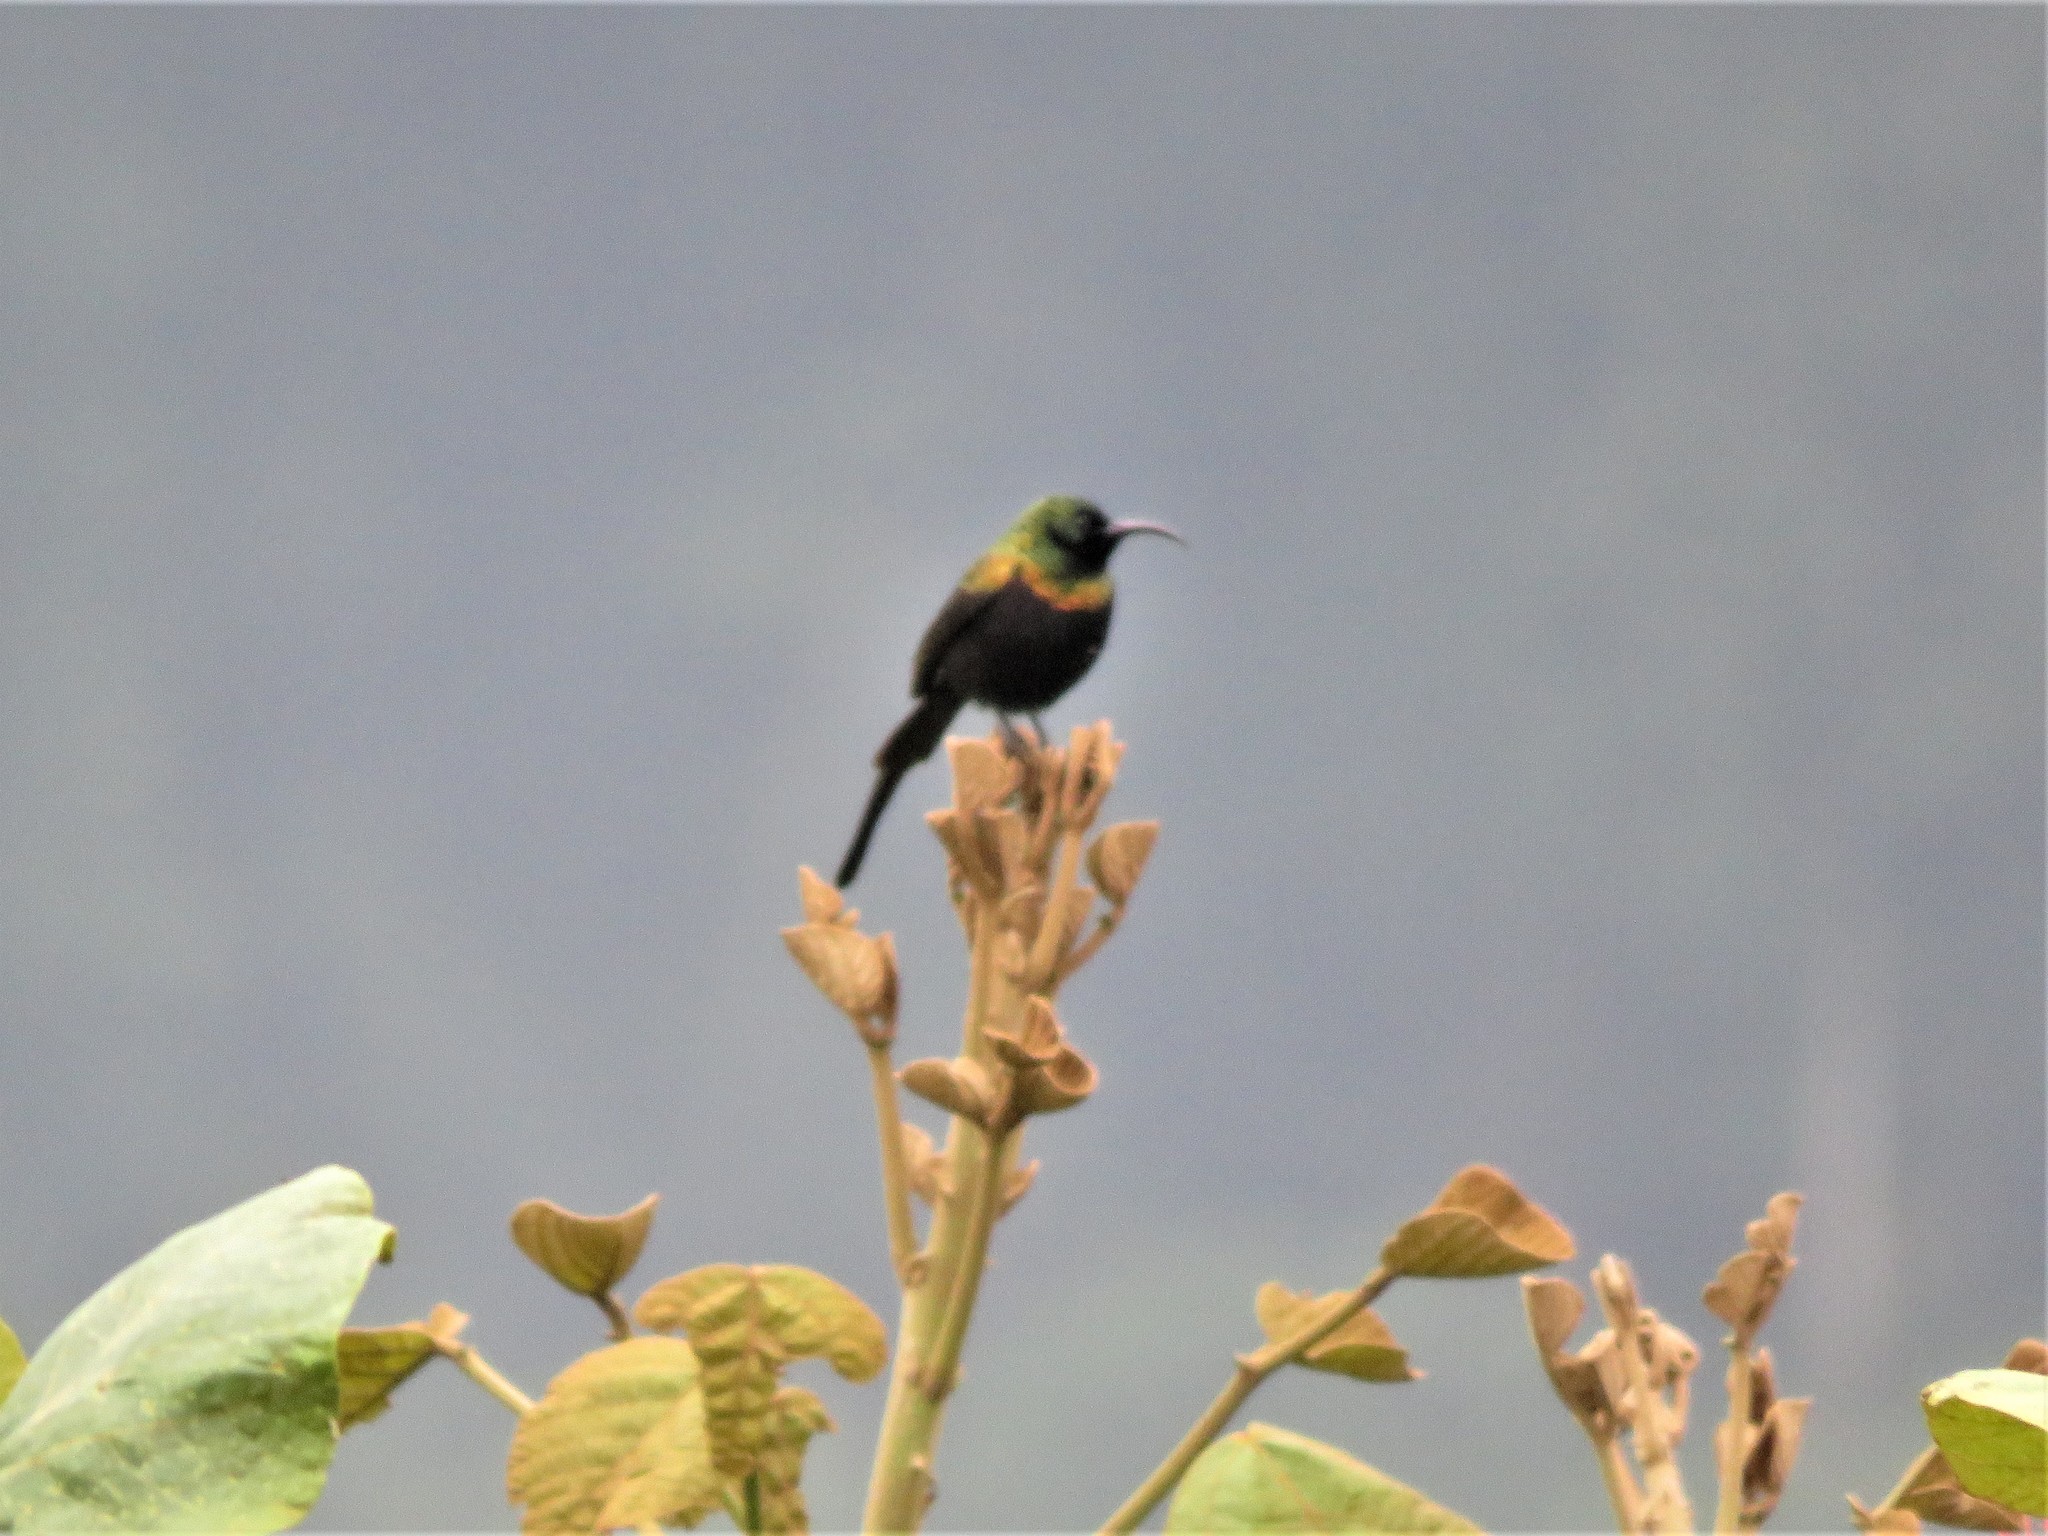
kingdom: Animalia
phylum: Chordata
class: Aves
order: Passeriformes
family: Nectariniidae
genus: Nectarinia
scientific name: Nectarinia kilimensis
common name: Bronzy sunbird
